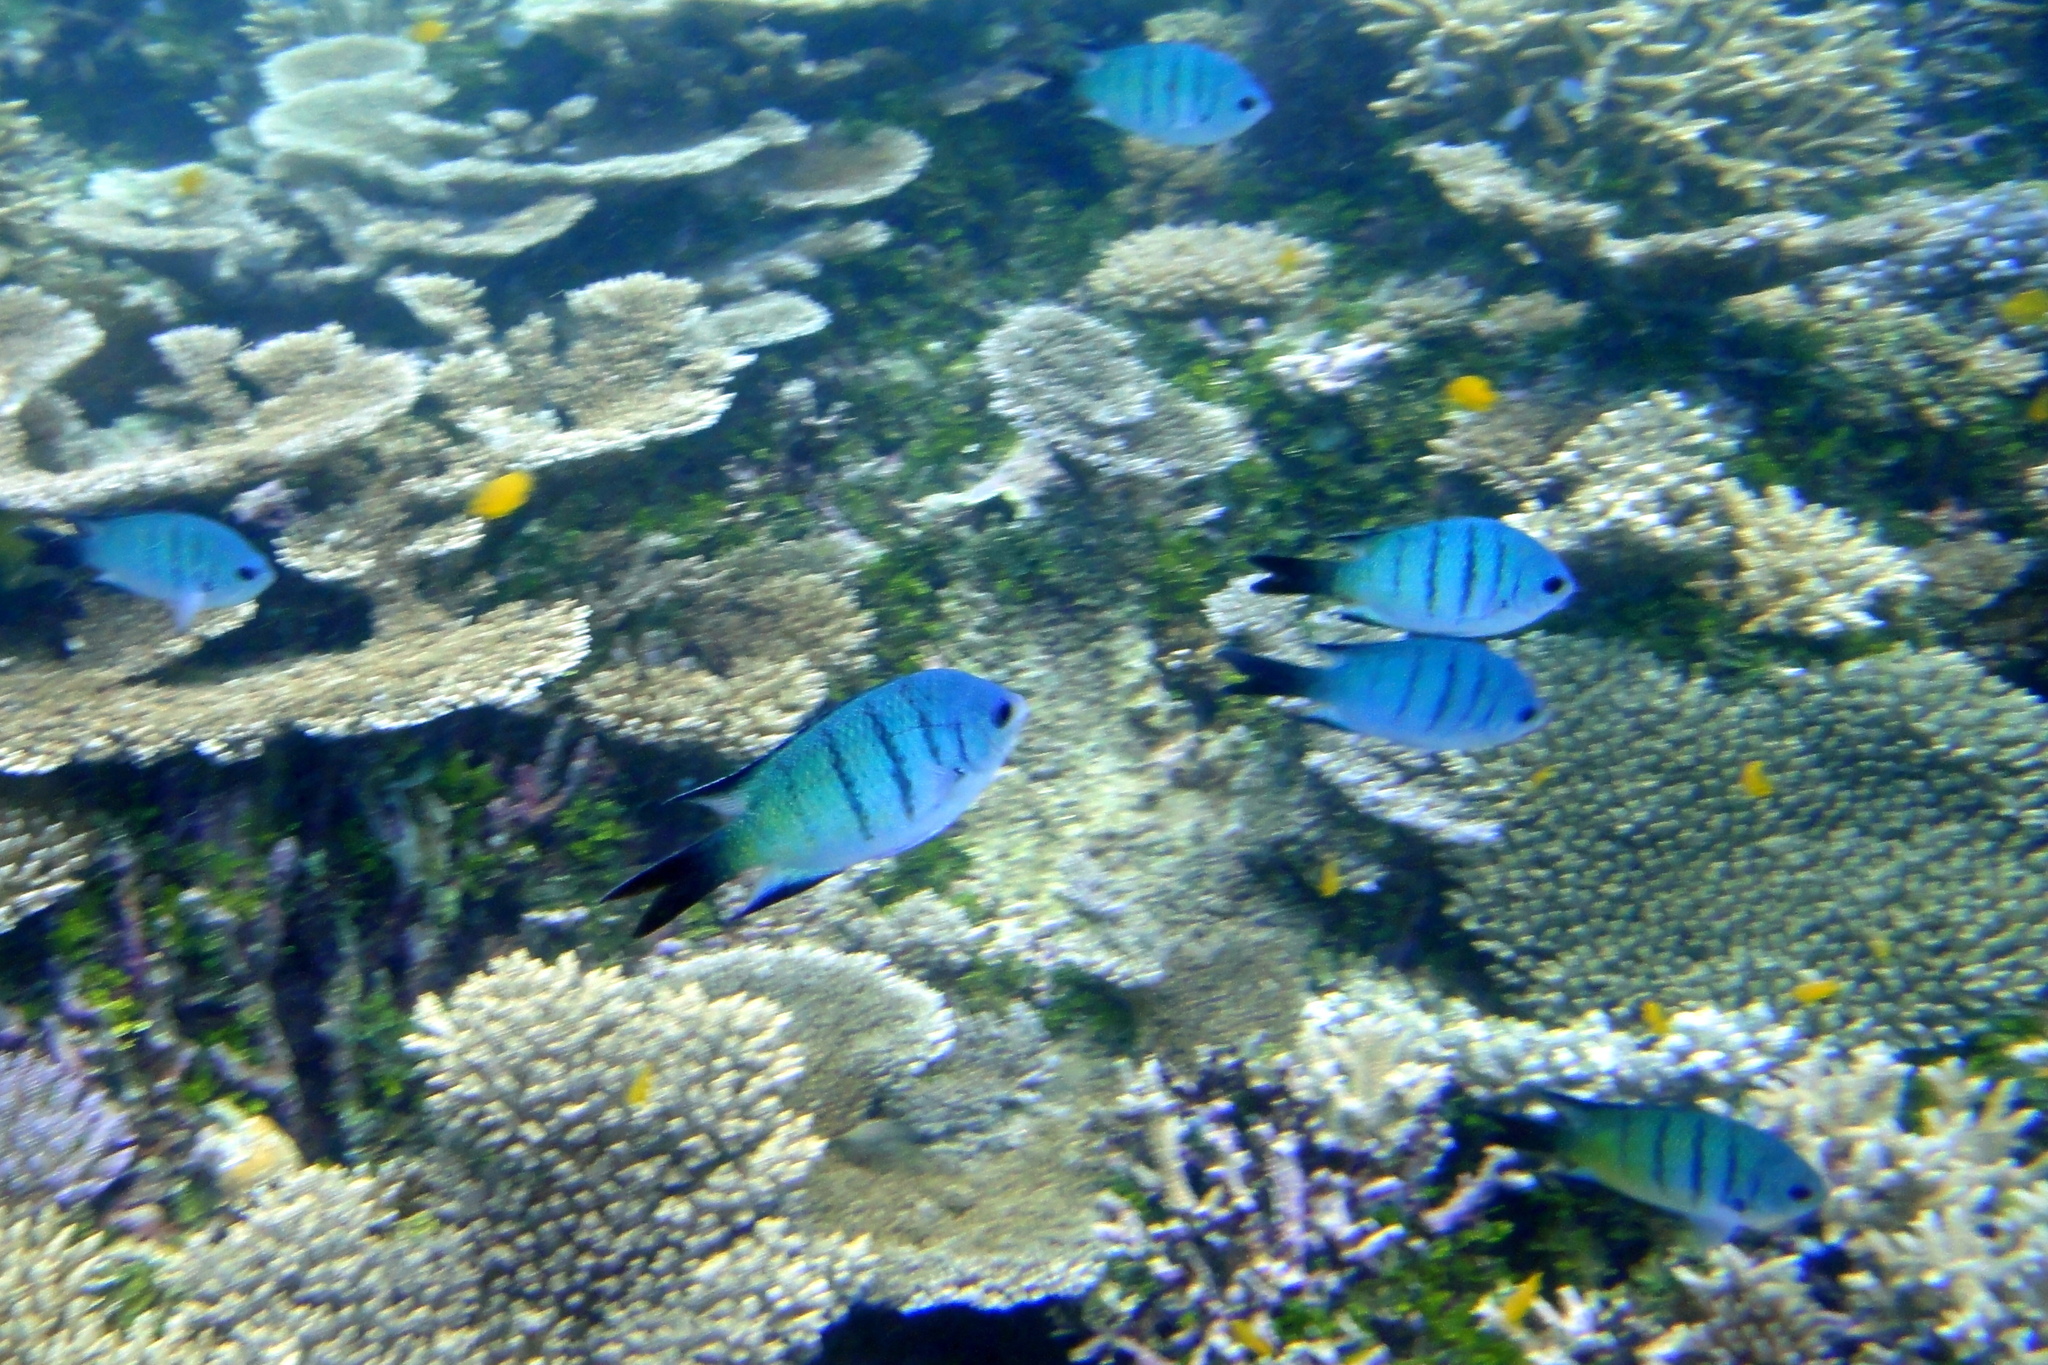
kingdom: Animalia
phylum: Chordata
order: Perciformes
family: Pomacentridae
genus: Abudefduf
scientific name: Abudefduf whitleyi
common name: Whitley's seargent
